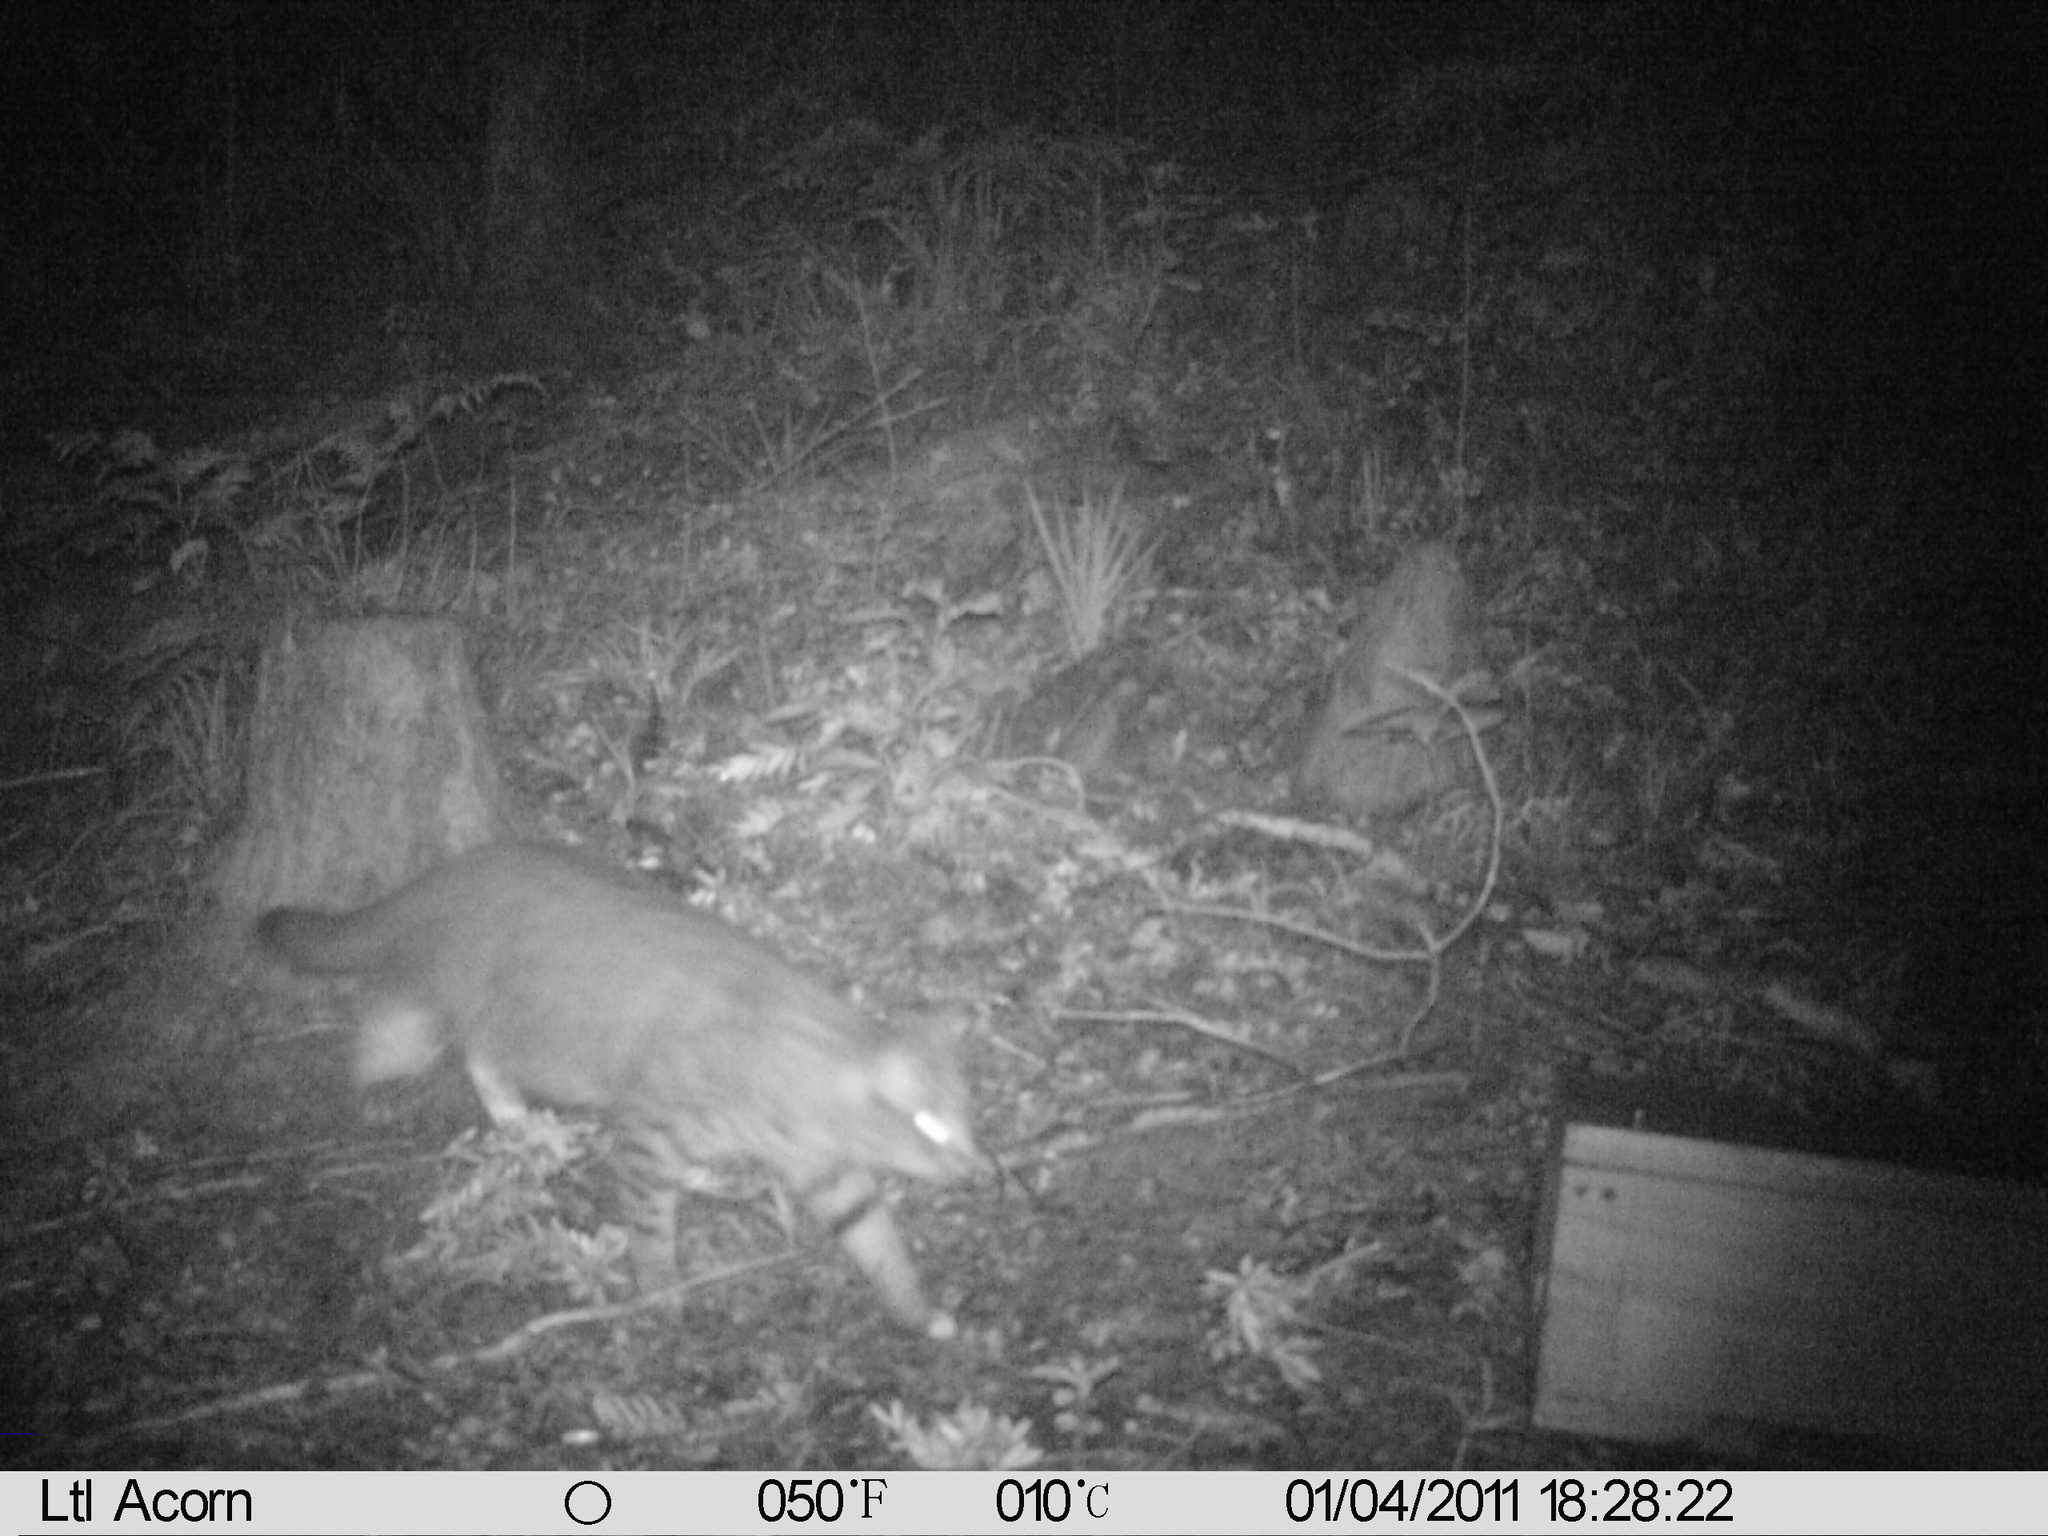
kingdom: Animalia
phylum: Chordata
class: Mammalia
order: Carnivora
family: Felidae
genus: Felis
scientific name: Felis catus
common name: Domestic cat
